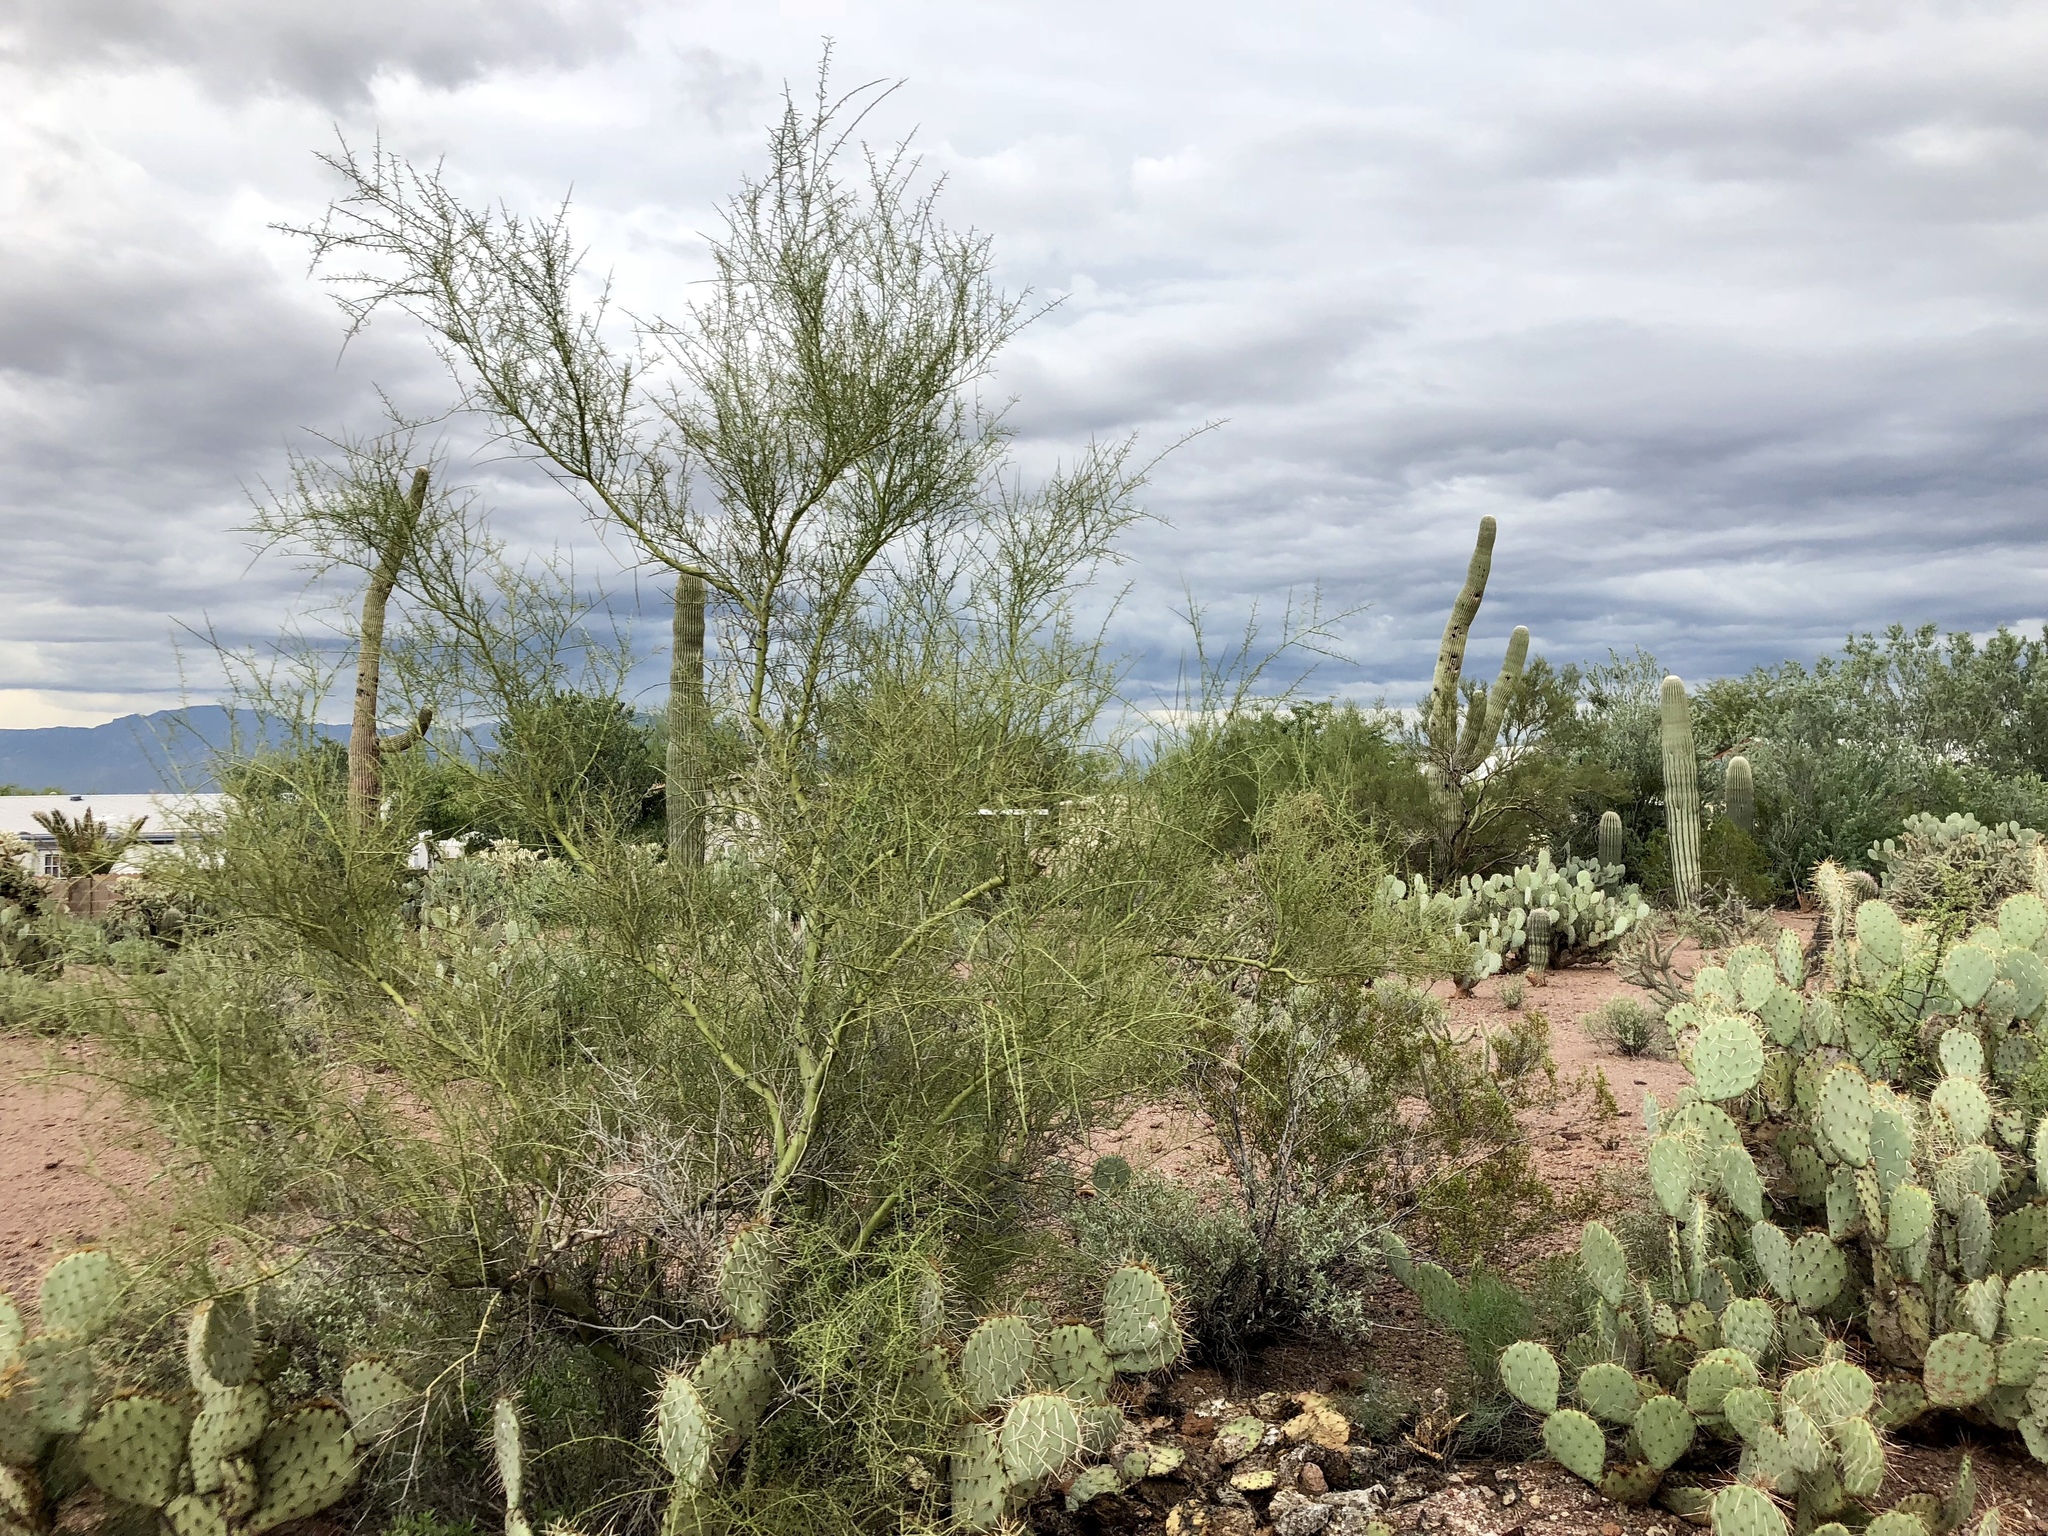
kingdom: Plantae
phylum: Tracheophyta
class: Magnoliopsida
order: Fabales
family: Fabaceae
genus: Parkinsonia
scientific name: Parkinsonia microphylla
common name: Yellow paloverde
